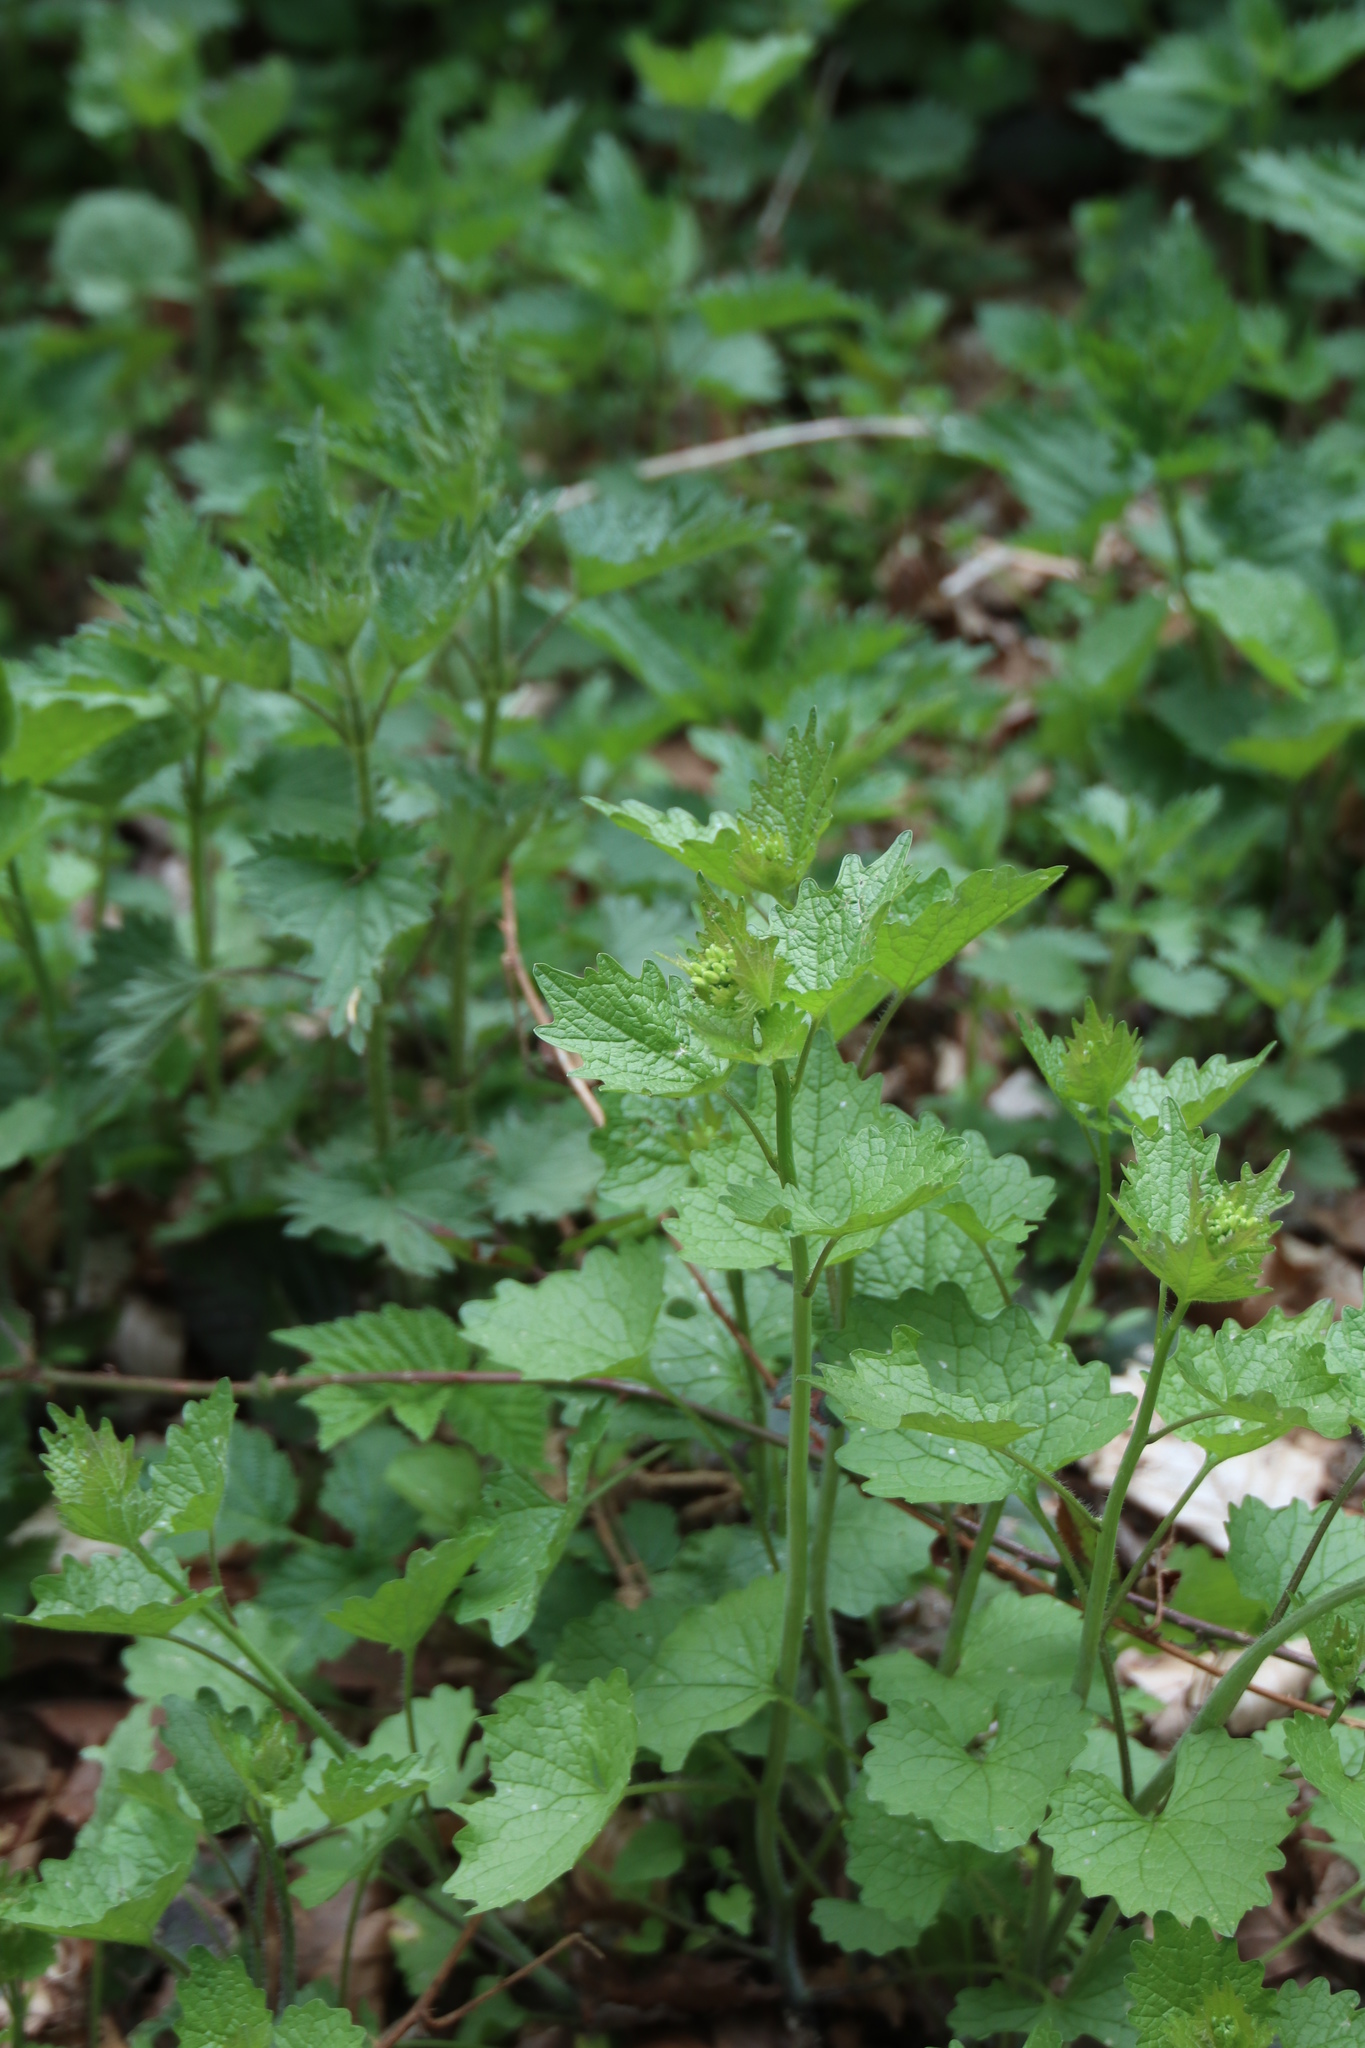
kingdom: Plantae
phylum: Tracheophyta
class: Magnoliopsida
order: Brassicales
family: Brassicaceae
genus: Alliaria
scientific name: Alliaria petiolata
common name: Garlic mustard
